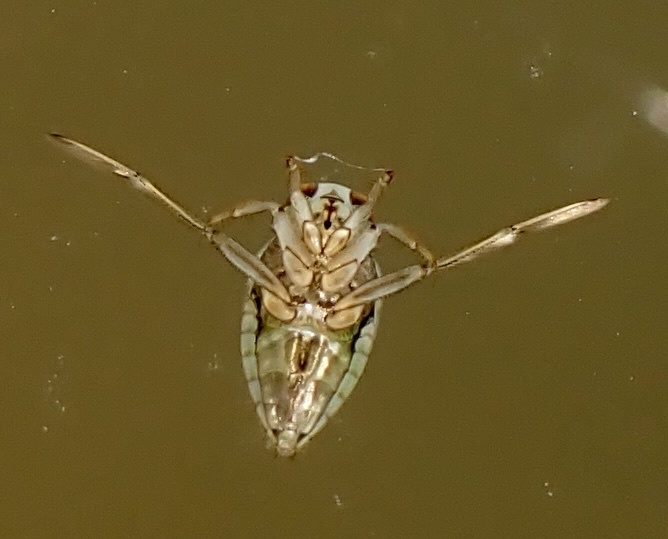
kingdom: Animalia
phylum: Arthropoda
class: Insecta
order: Hemiptera
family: Notonectidae
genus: Notonecta
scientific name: Notonecta
